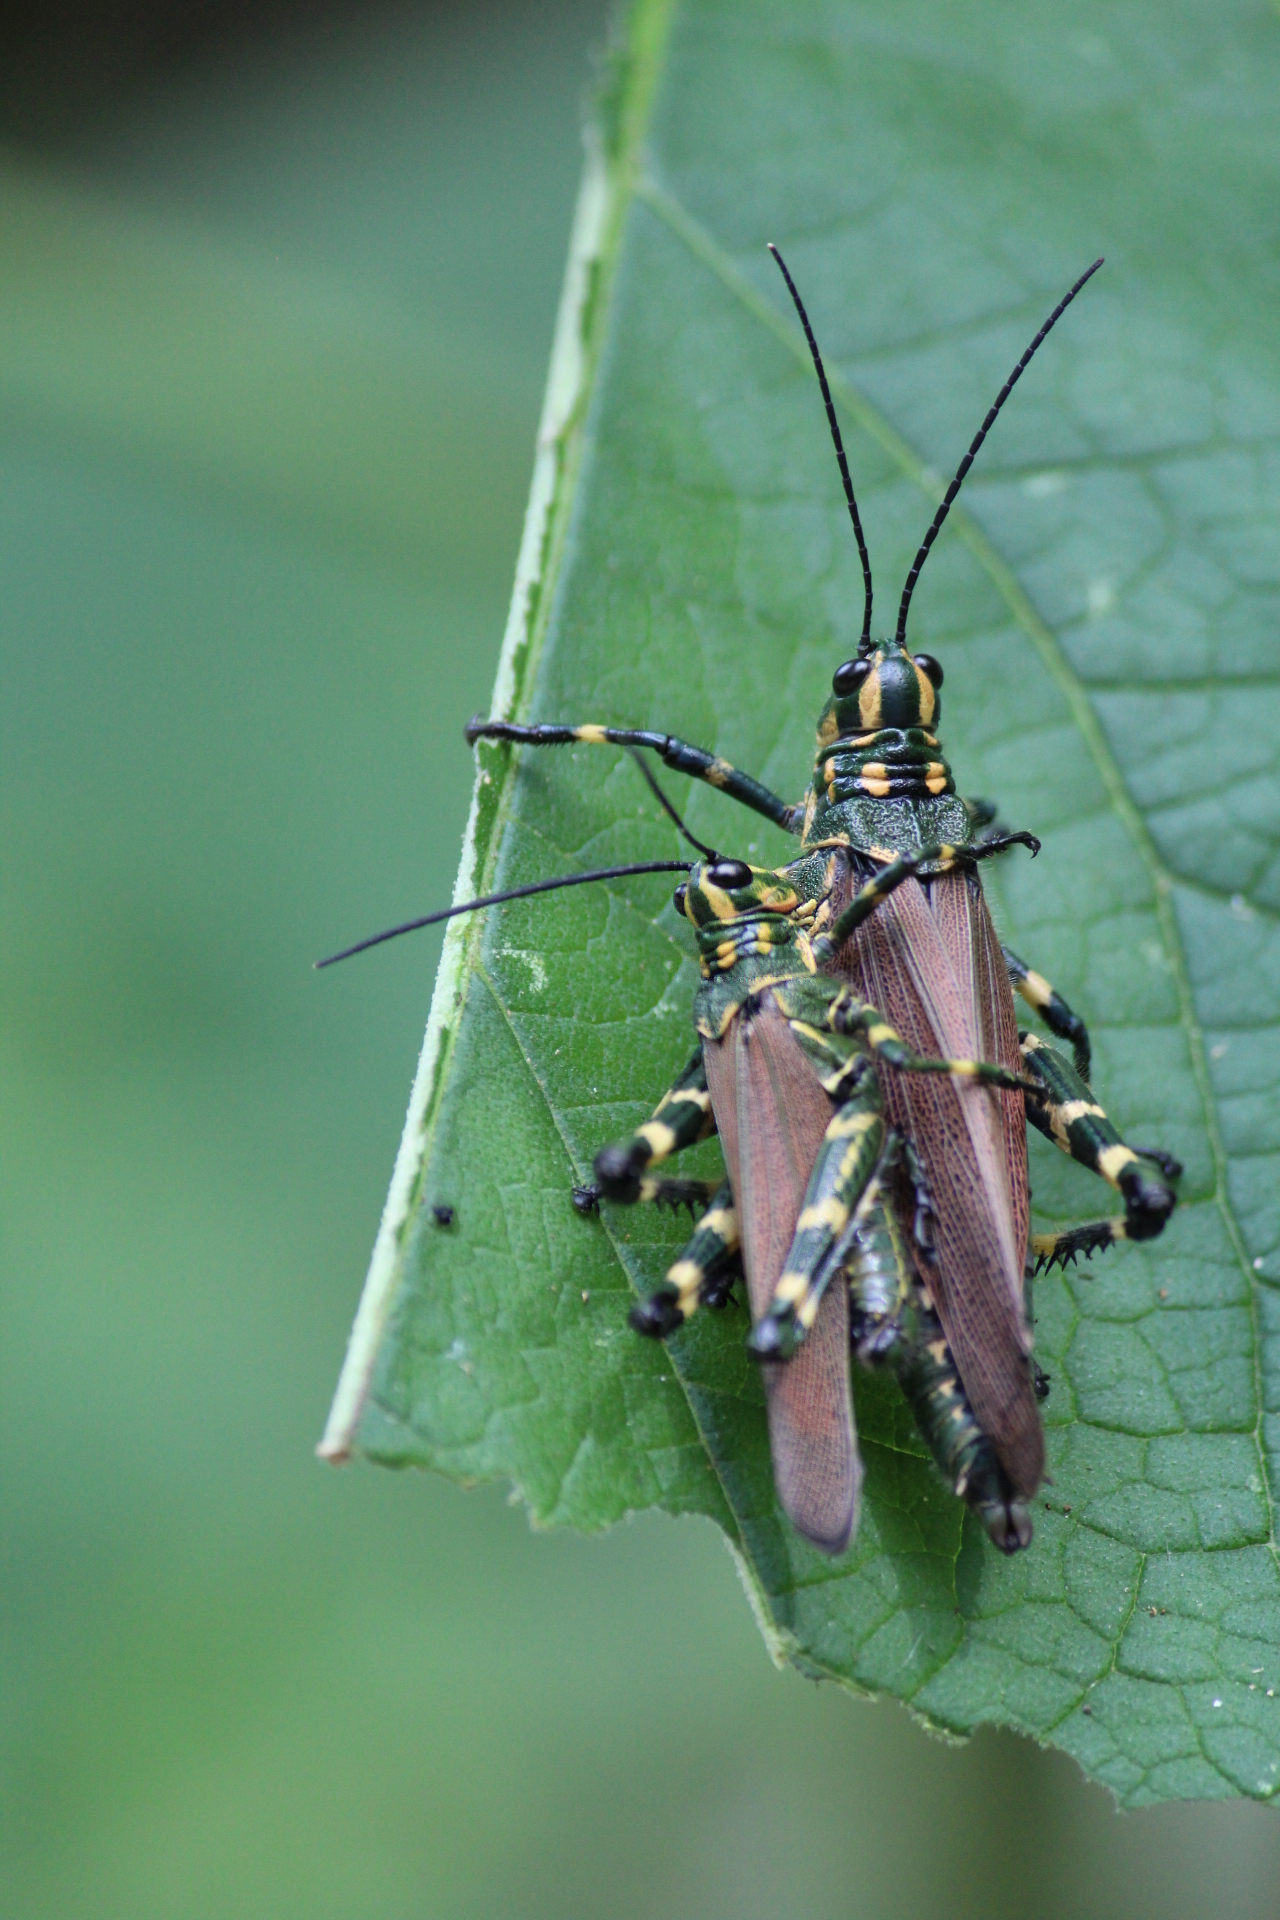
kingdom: Animalia
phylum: Arthropoda
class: Insecta
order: Orthoptera
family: Romaleidae
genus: Chromacris
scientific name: Chromacris speciosa
